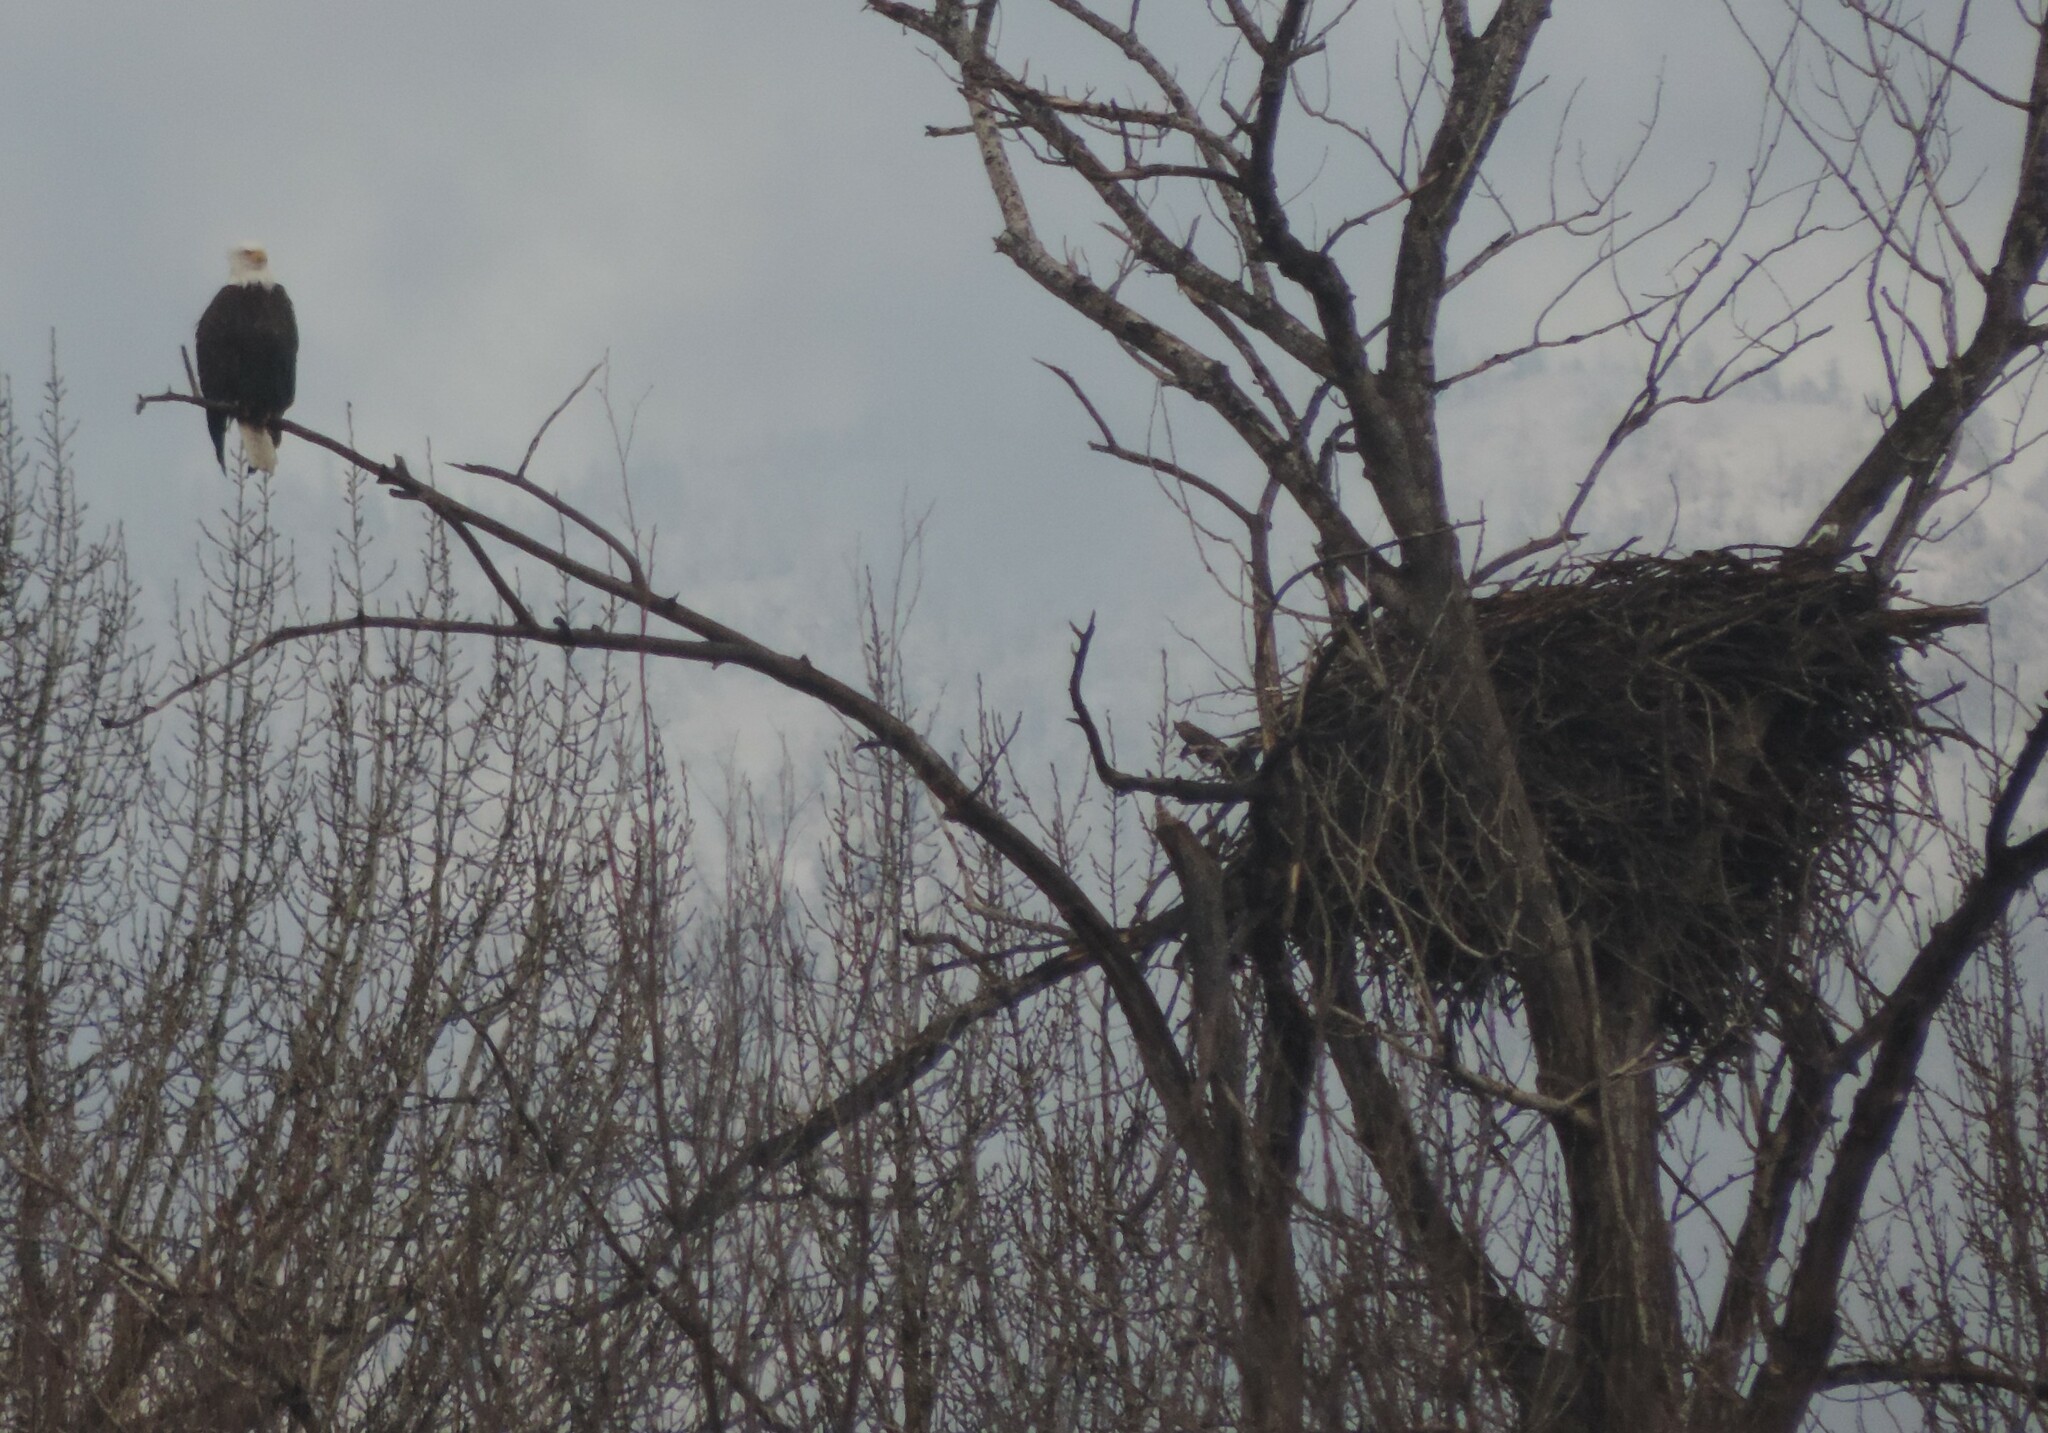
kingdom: Animalia
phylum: Chordata
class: Aves
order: Accipitriformes
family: Accipitridae
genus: Haliaeetus
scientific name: Haliaeetus leucocephalus
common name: Bald eagle
